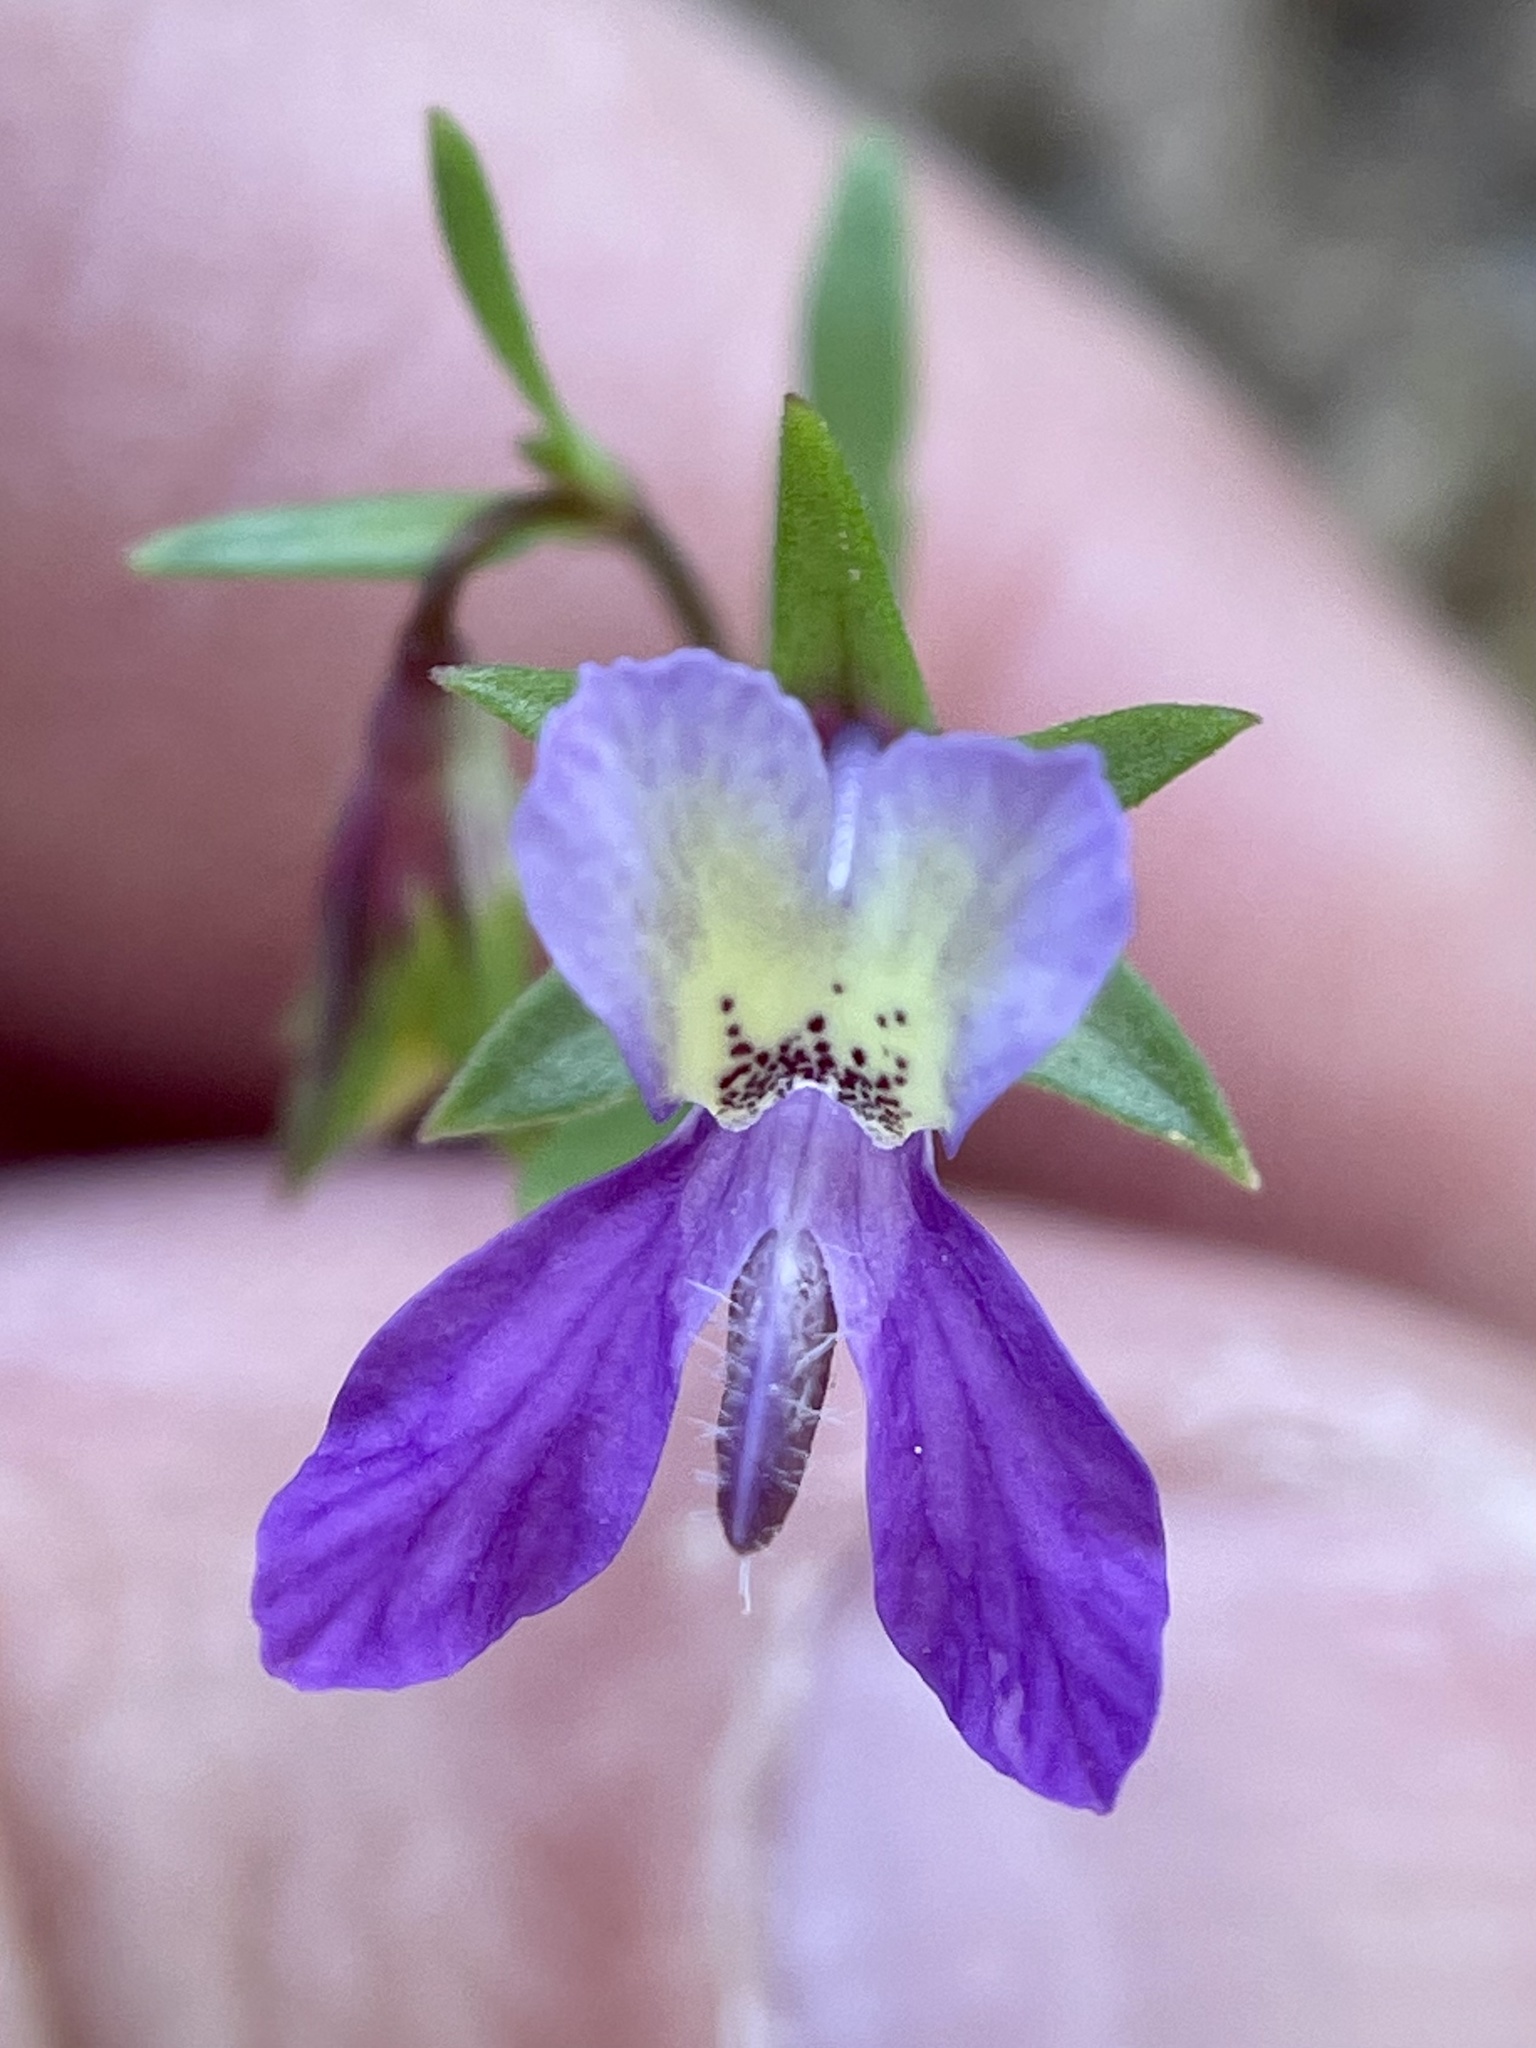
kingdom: Plantae
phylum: Tracheophyta
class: Magnoliopsida
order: Lamiales
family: Plantaginaceae
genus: Collinsia
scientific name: Collinsia sparsiflora
